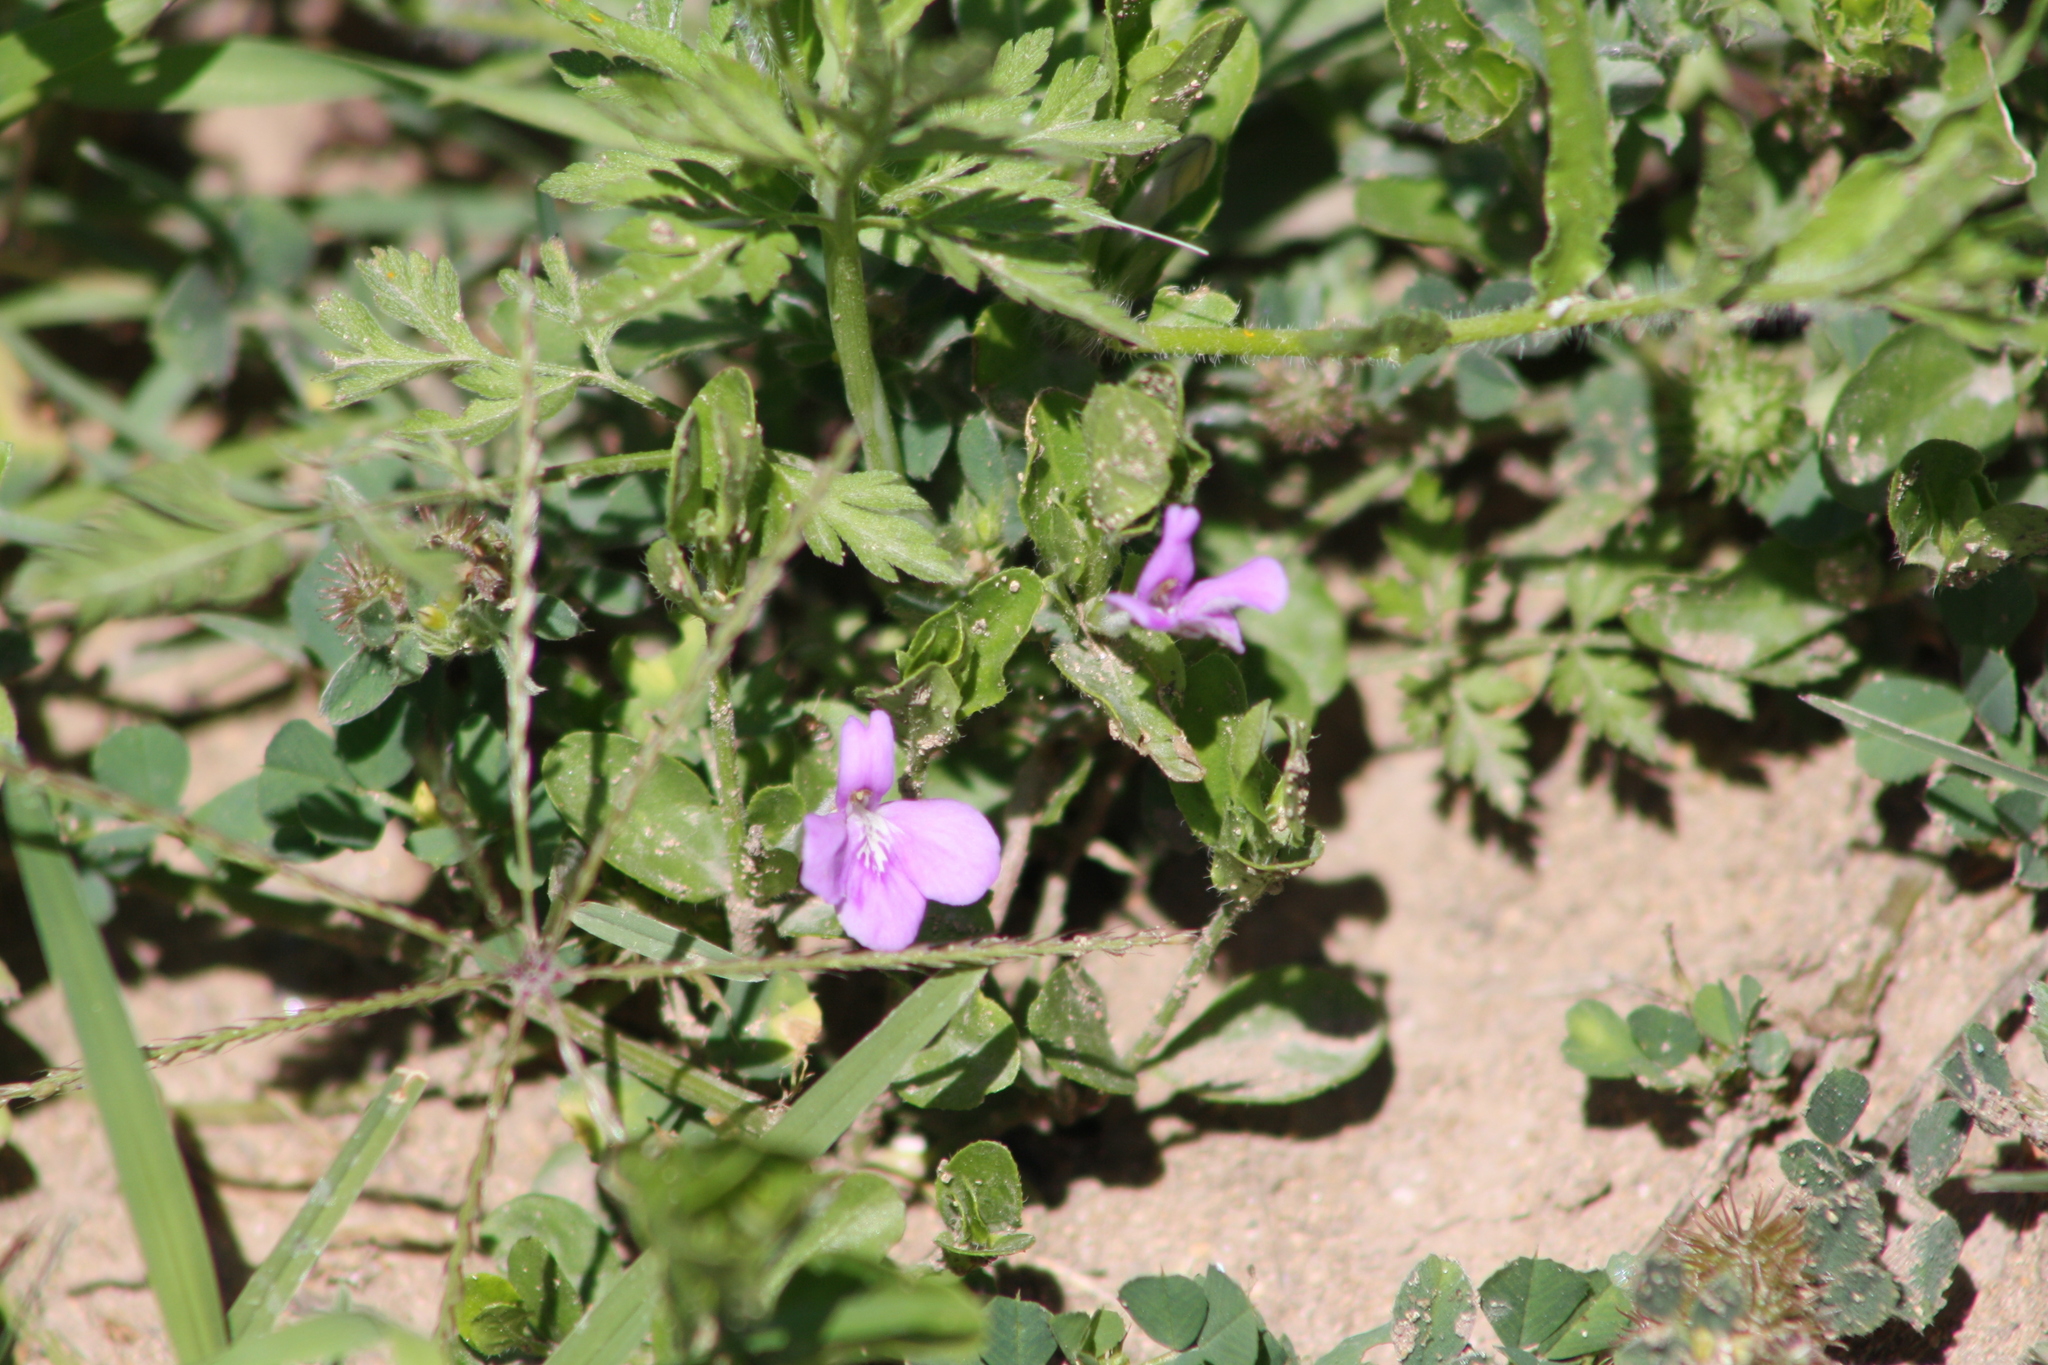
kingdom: Plantae
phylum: Tracheophyta
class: Magnoliopsida
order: Lamiales
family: Acanthaceae
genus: Justicia
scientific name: Justicia pilosella
